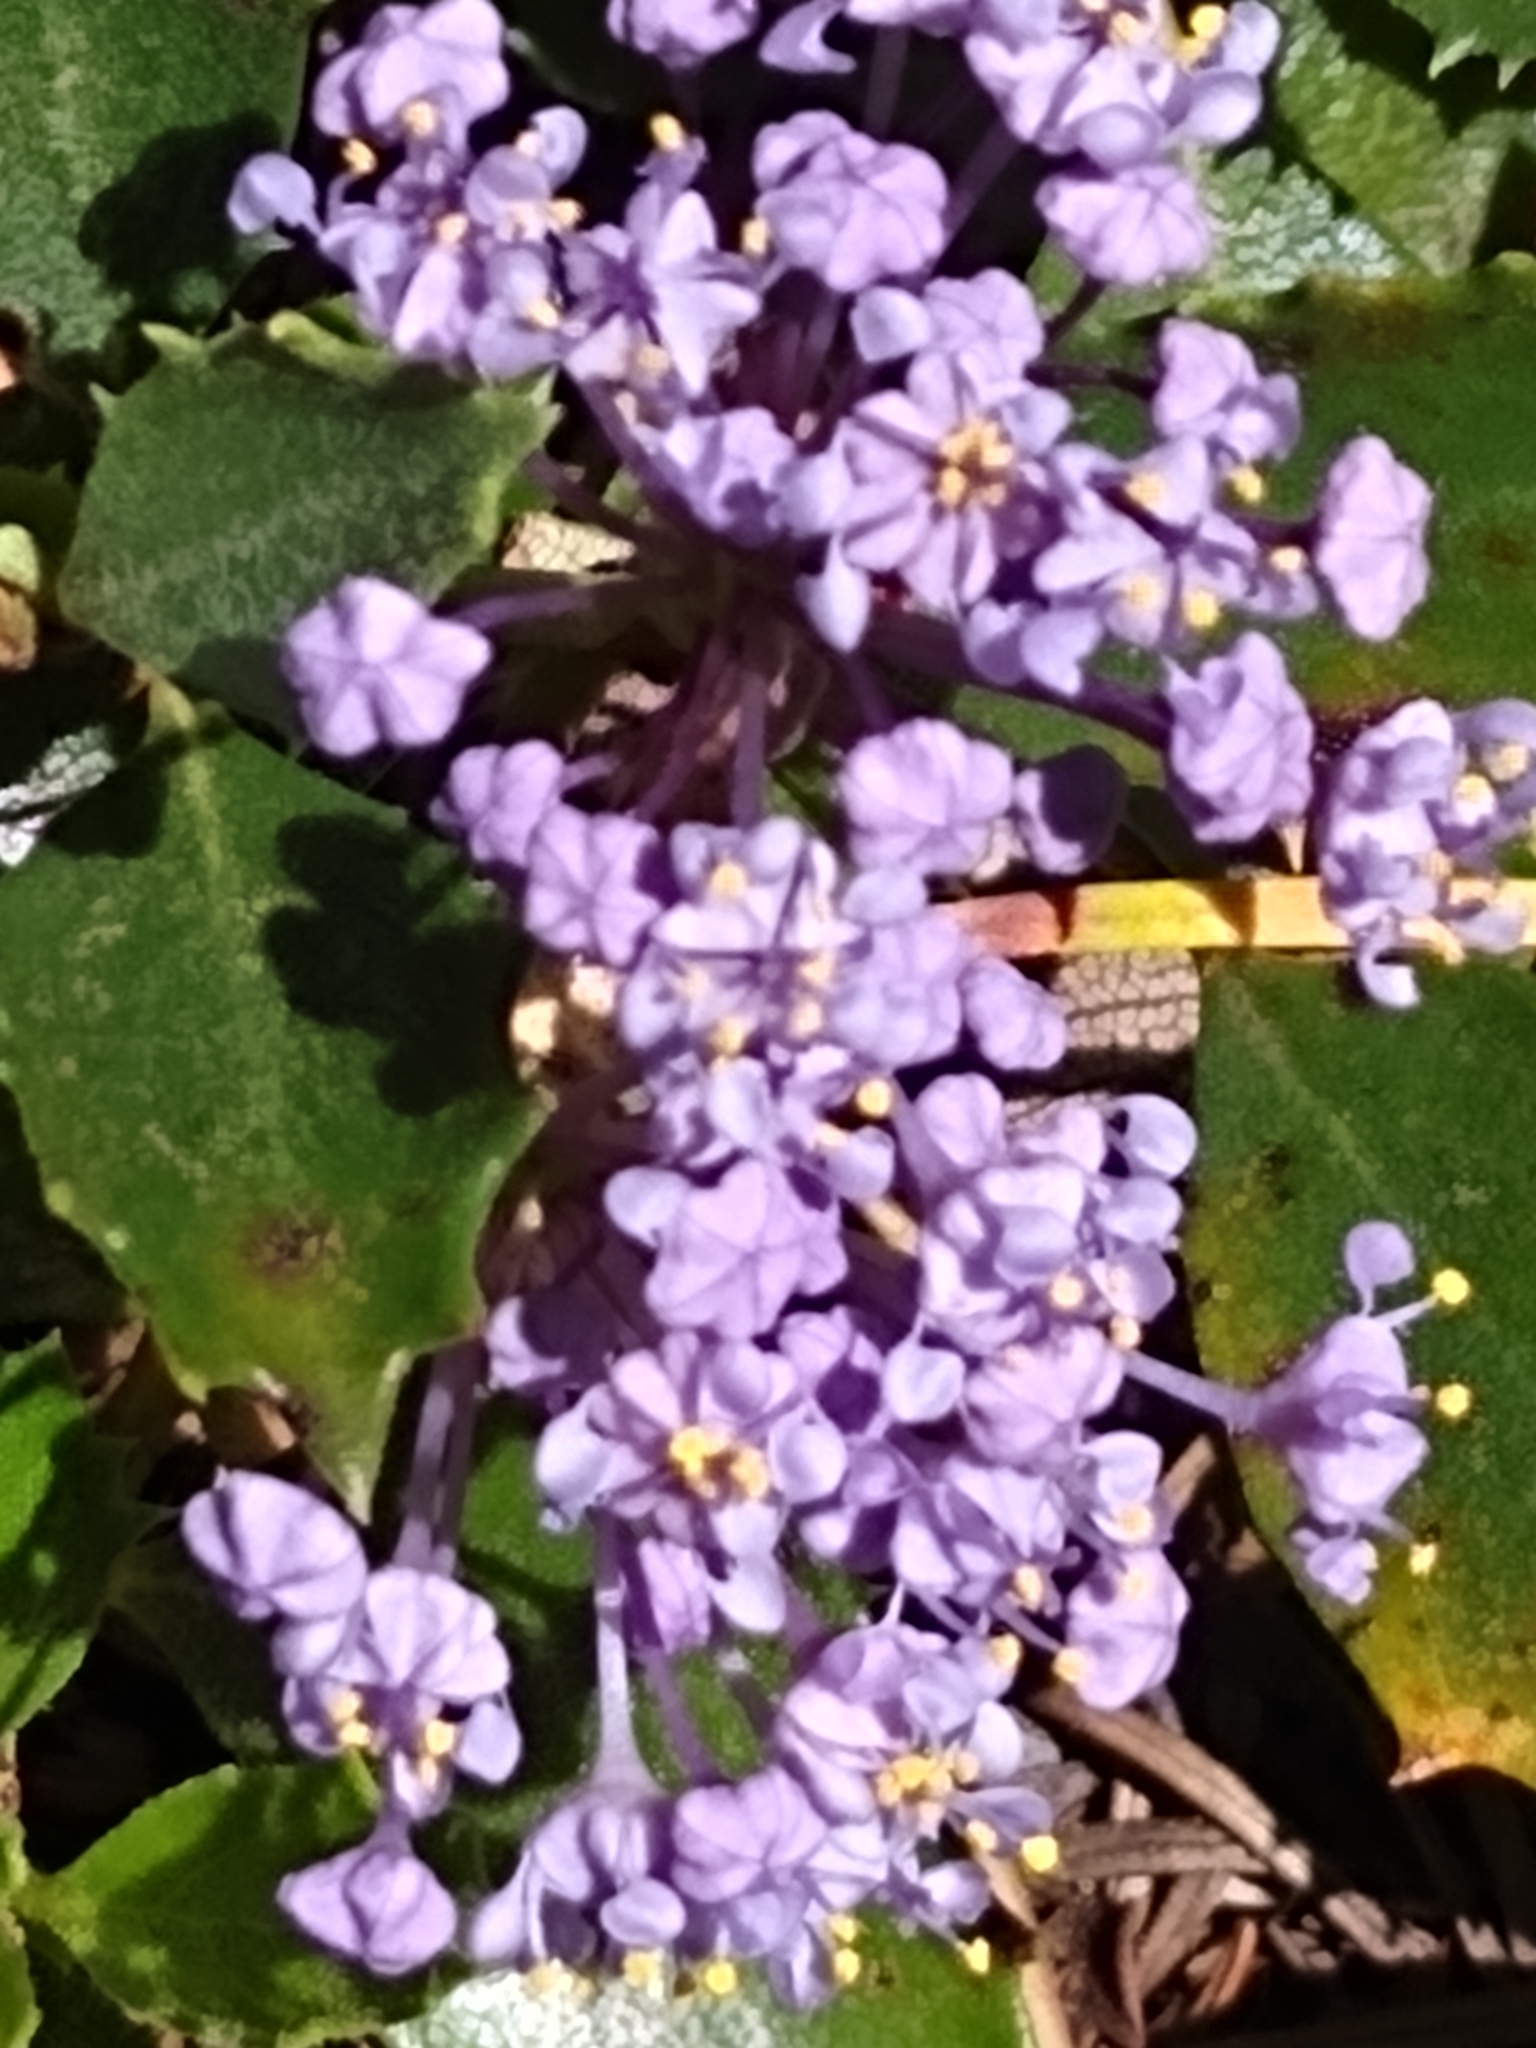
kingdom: Plantae
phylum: Tracheophyta
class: Magnoliopsida
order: Rosales
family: Rhamnaceae
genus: Ceanothus
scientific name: Ceanothus prostratus
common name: Mahala-mat
